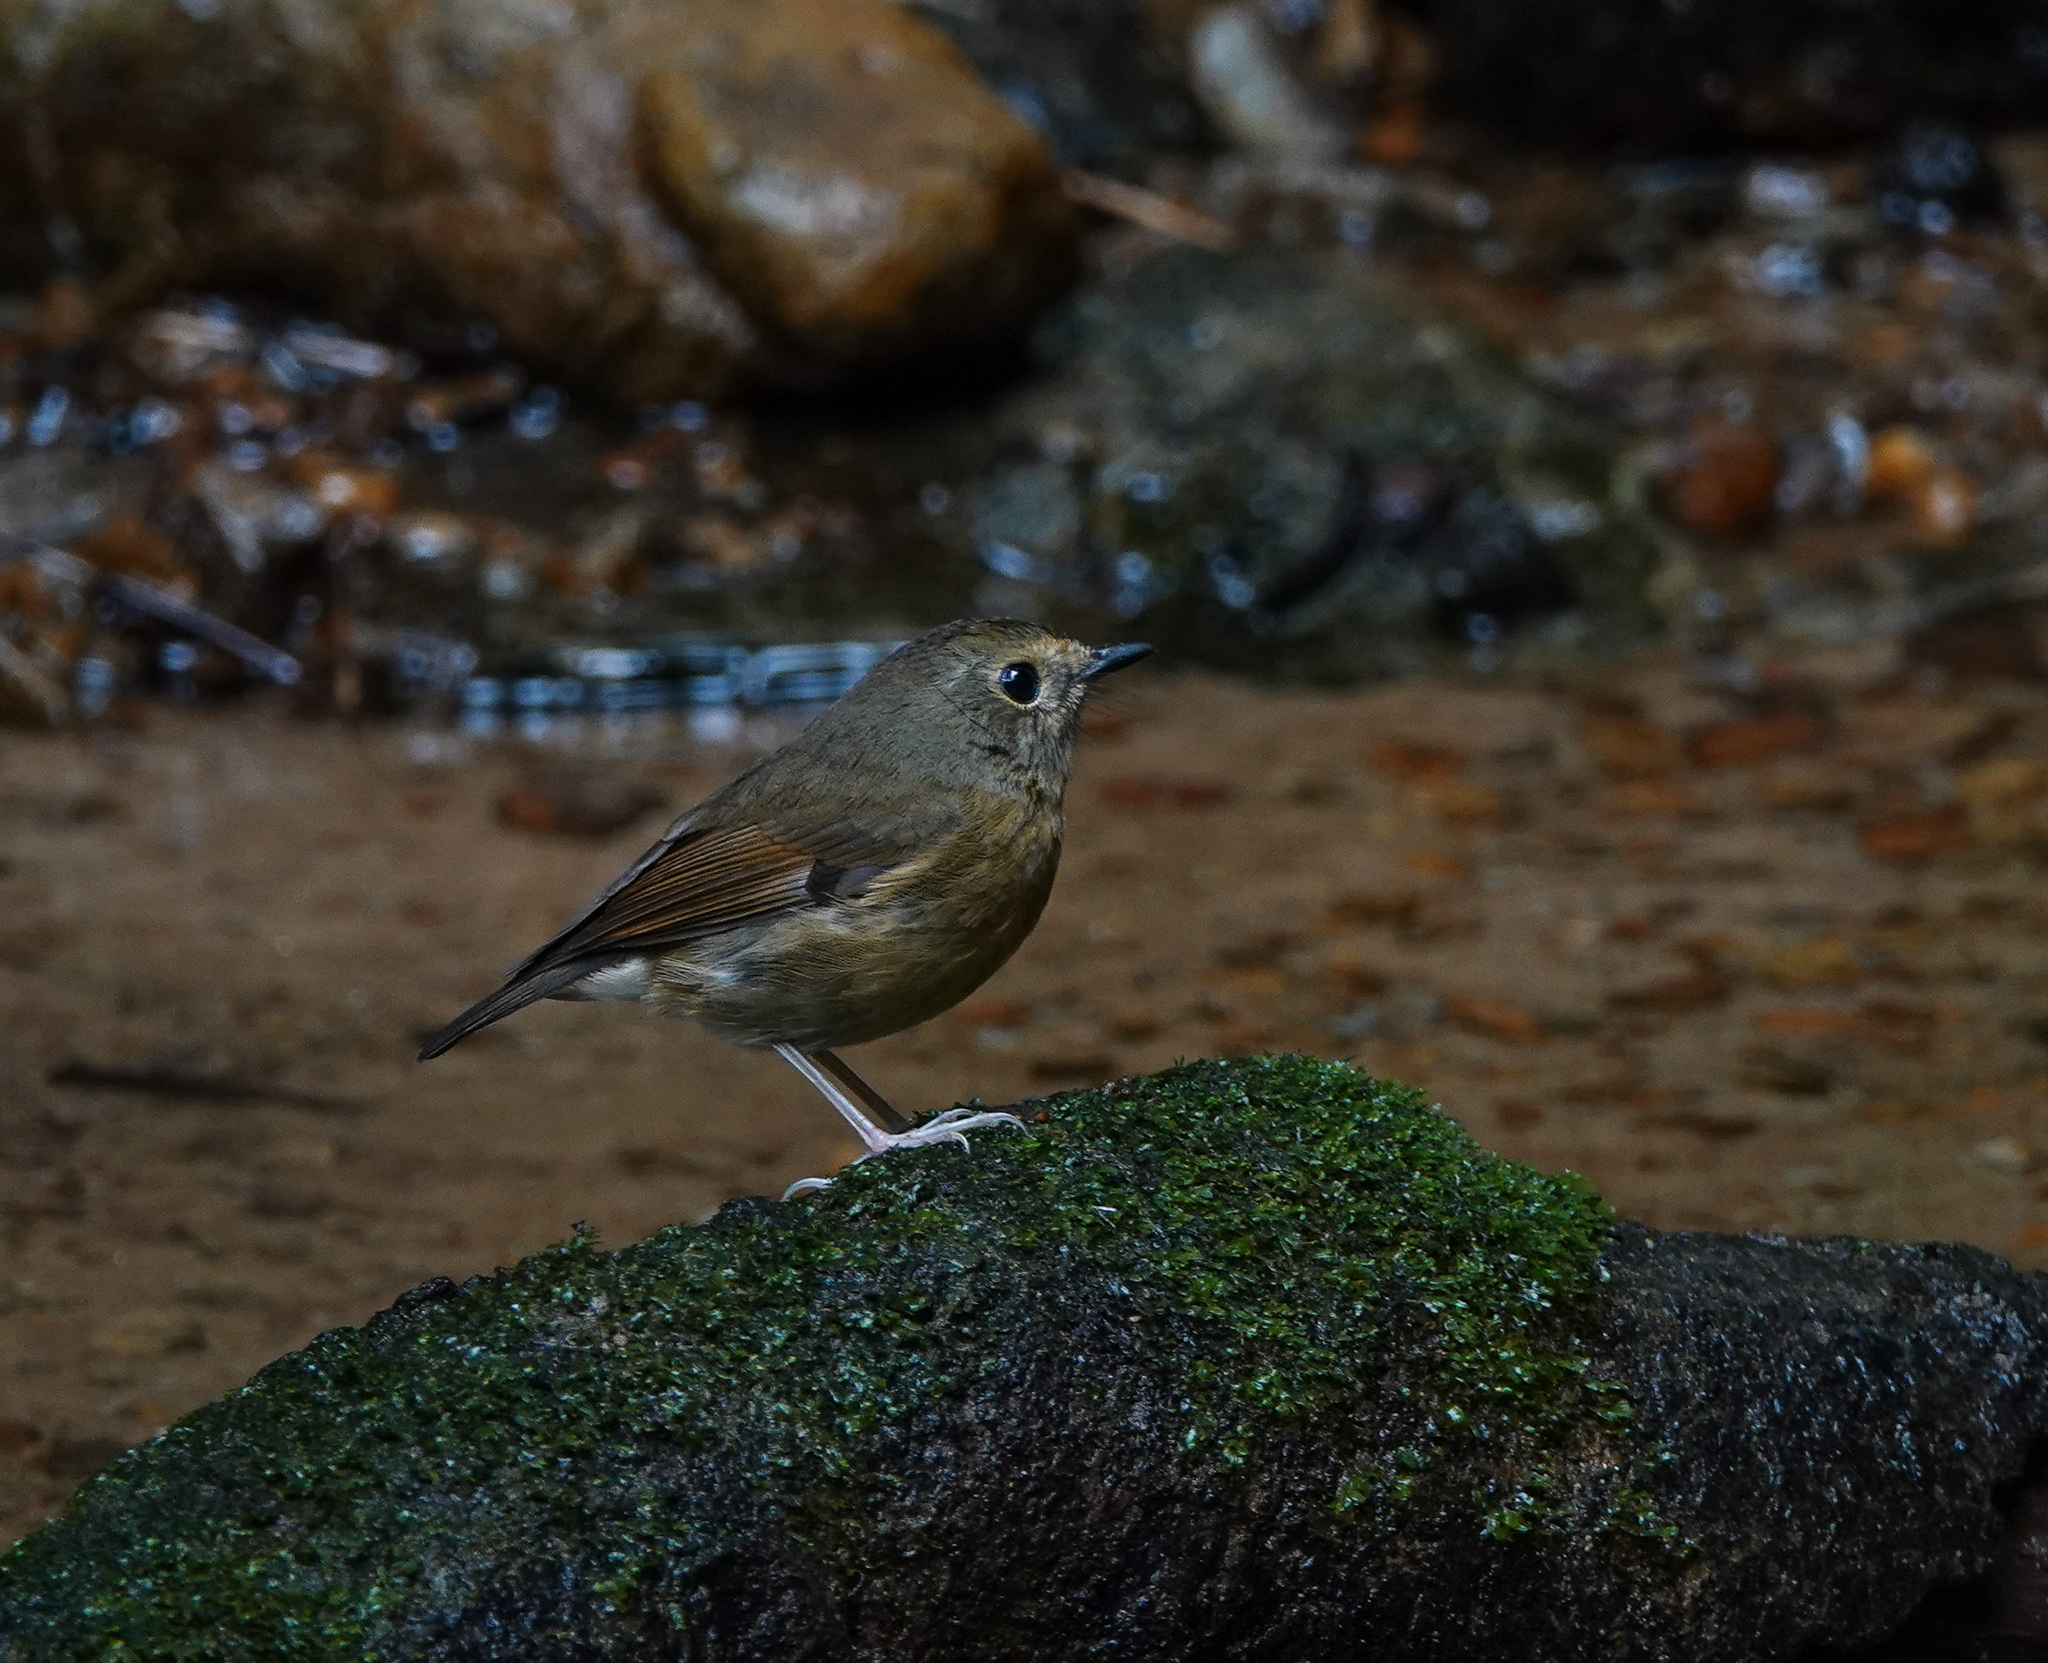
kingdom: Animalia
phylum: Chordata
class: Aves
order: Passeriformes
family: Muscicapidae
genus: Ficedula
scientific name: Ficedula hyperythra
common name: Snowy-browed flycatcher
